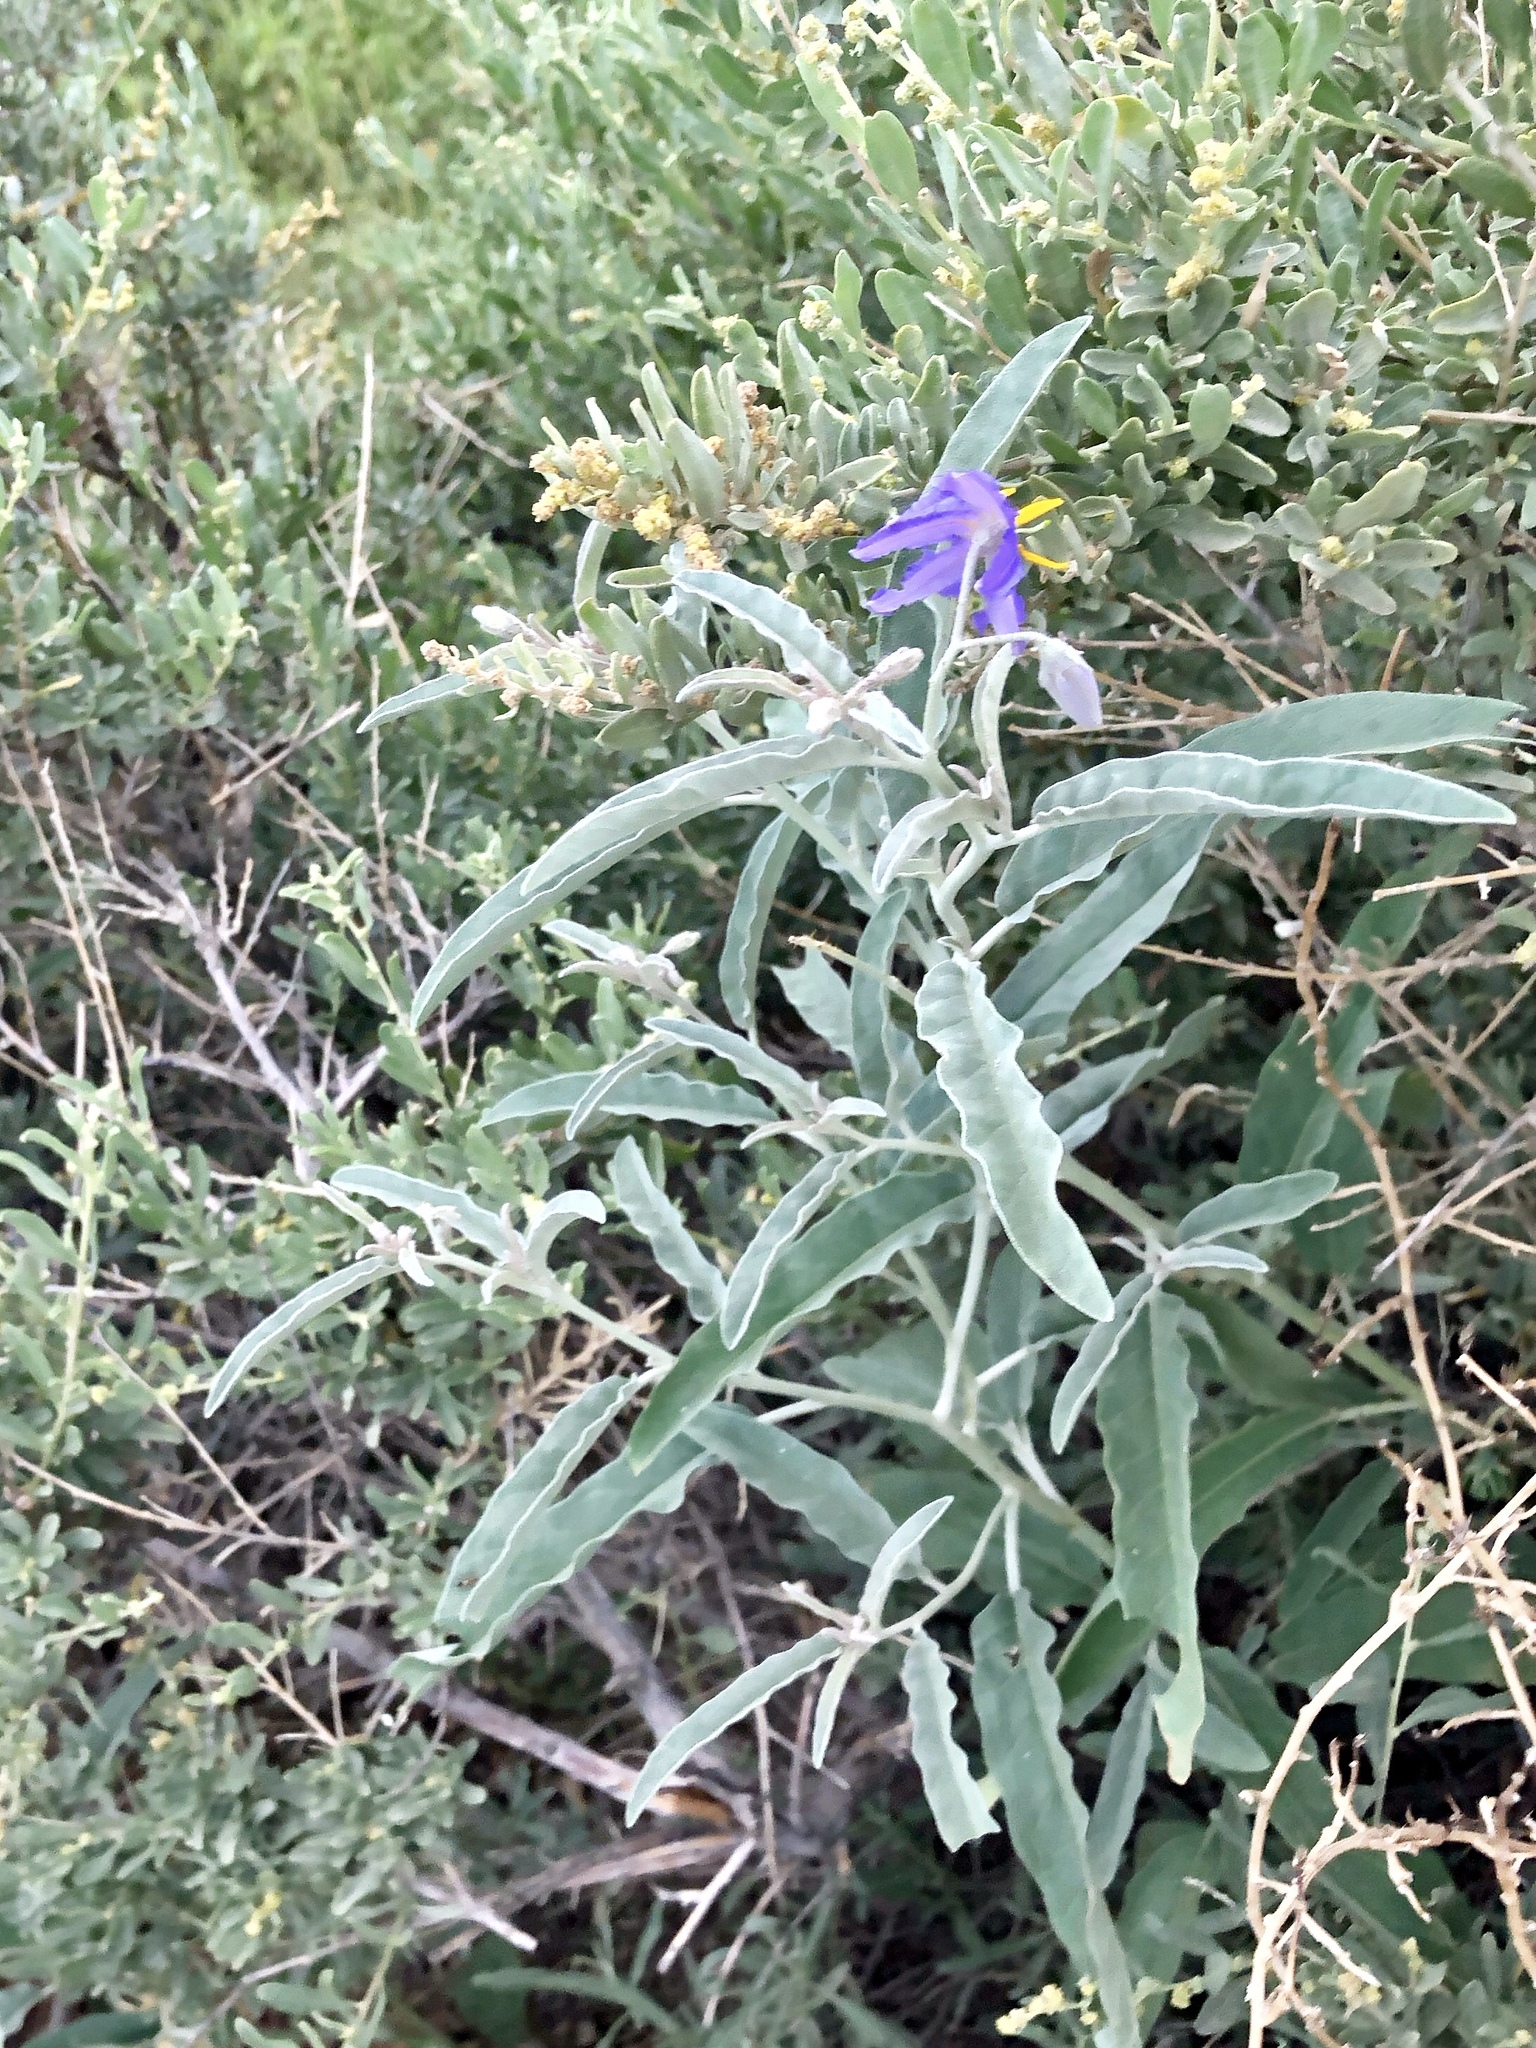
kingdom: Plantae
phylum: Tracheophyta
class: Magnoliopsida
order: Solanales
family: Solanaceae
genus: Solanum
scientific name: Solanum elaeagnifolium
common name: Silverleaf nightshade
